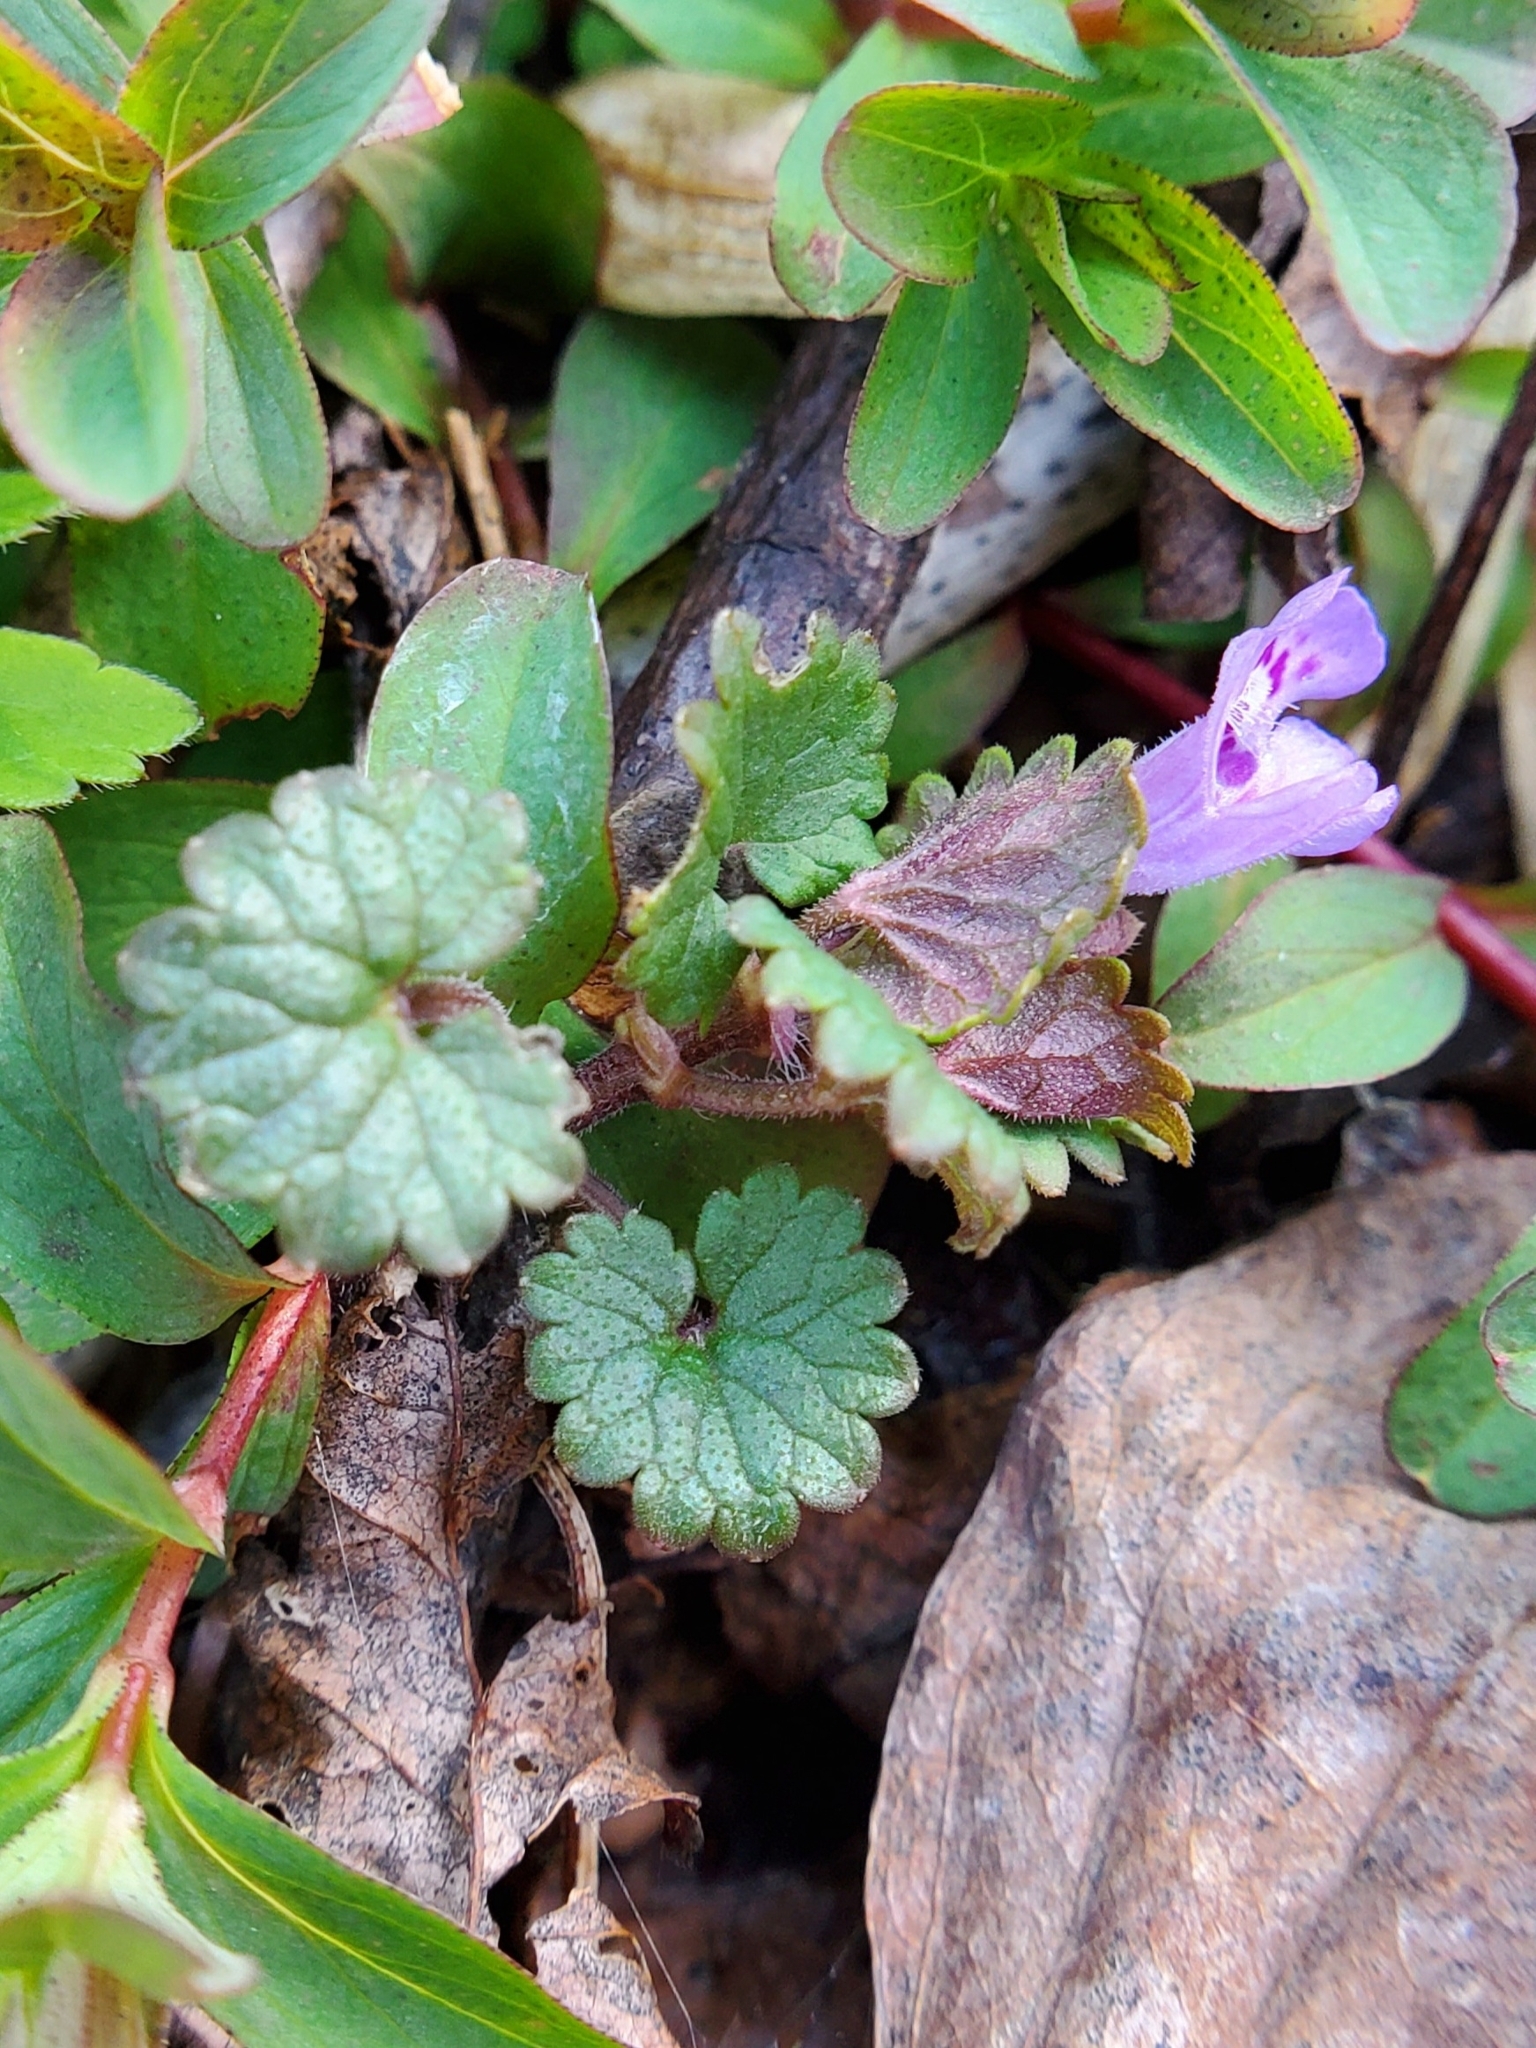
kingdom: Plantae
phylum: Tracheophyta
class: Magnoliopsida
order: Lamiales
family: Lamiaceae
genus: Glechoma
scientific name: Glechoma hederacea
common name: Ground ivy
